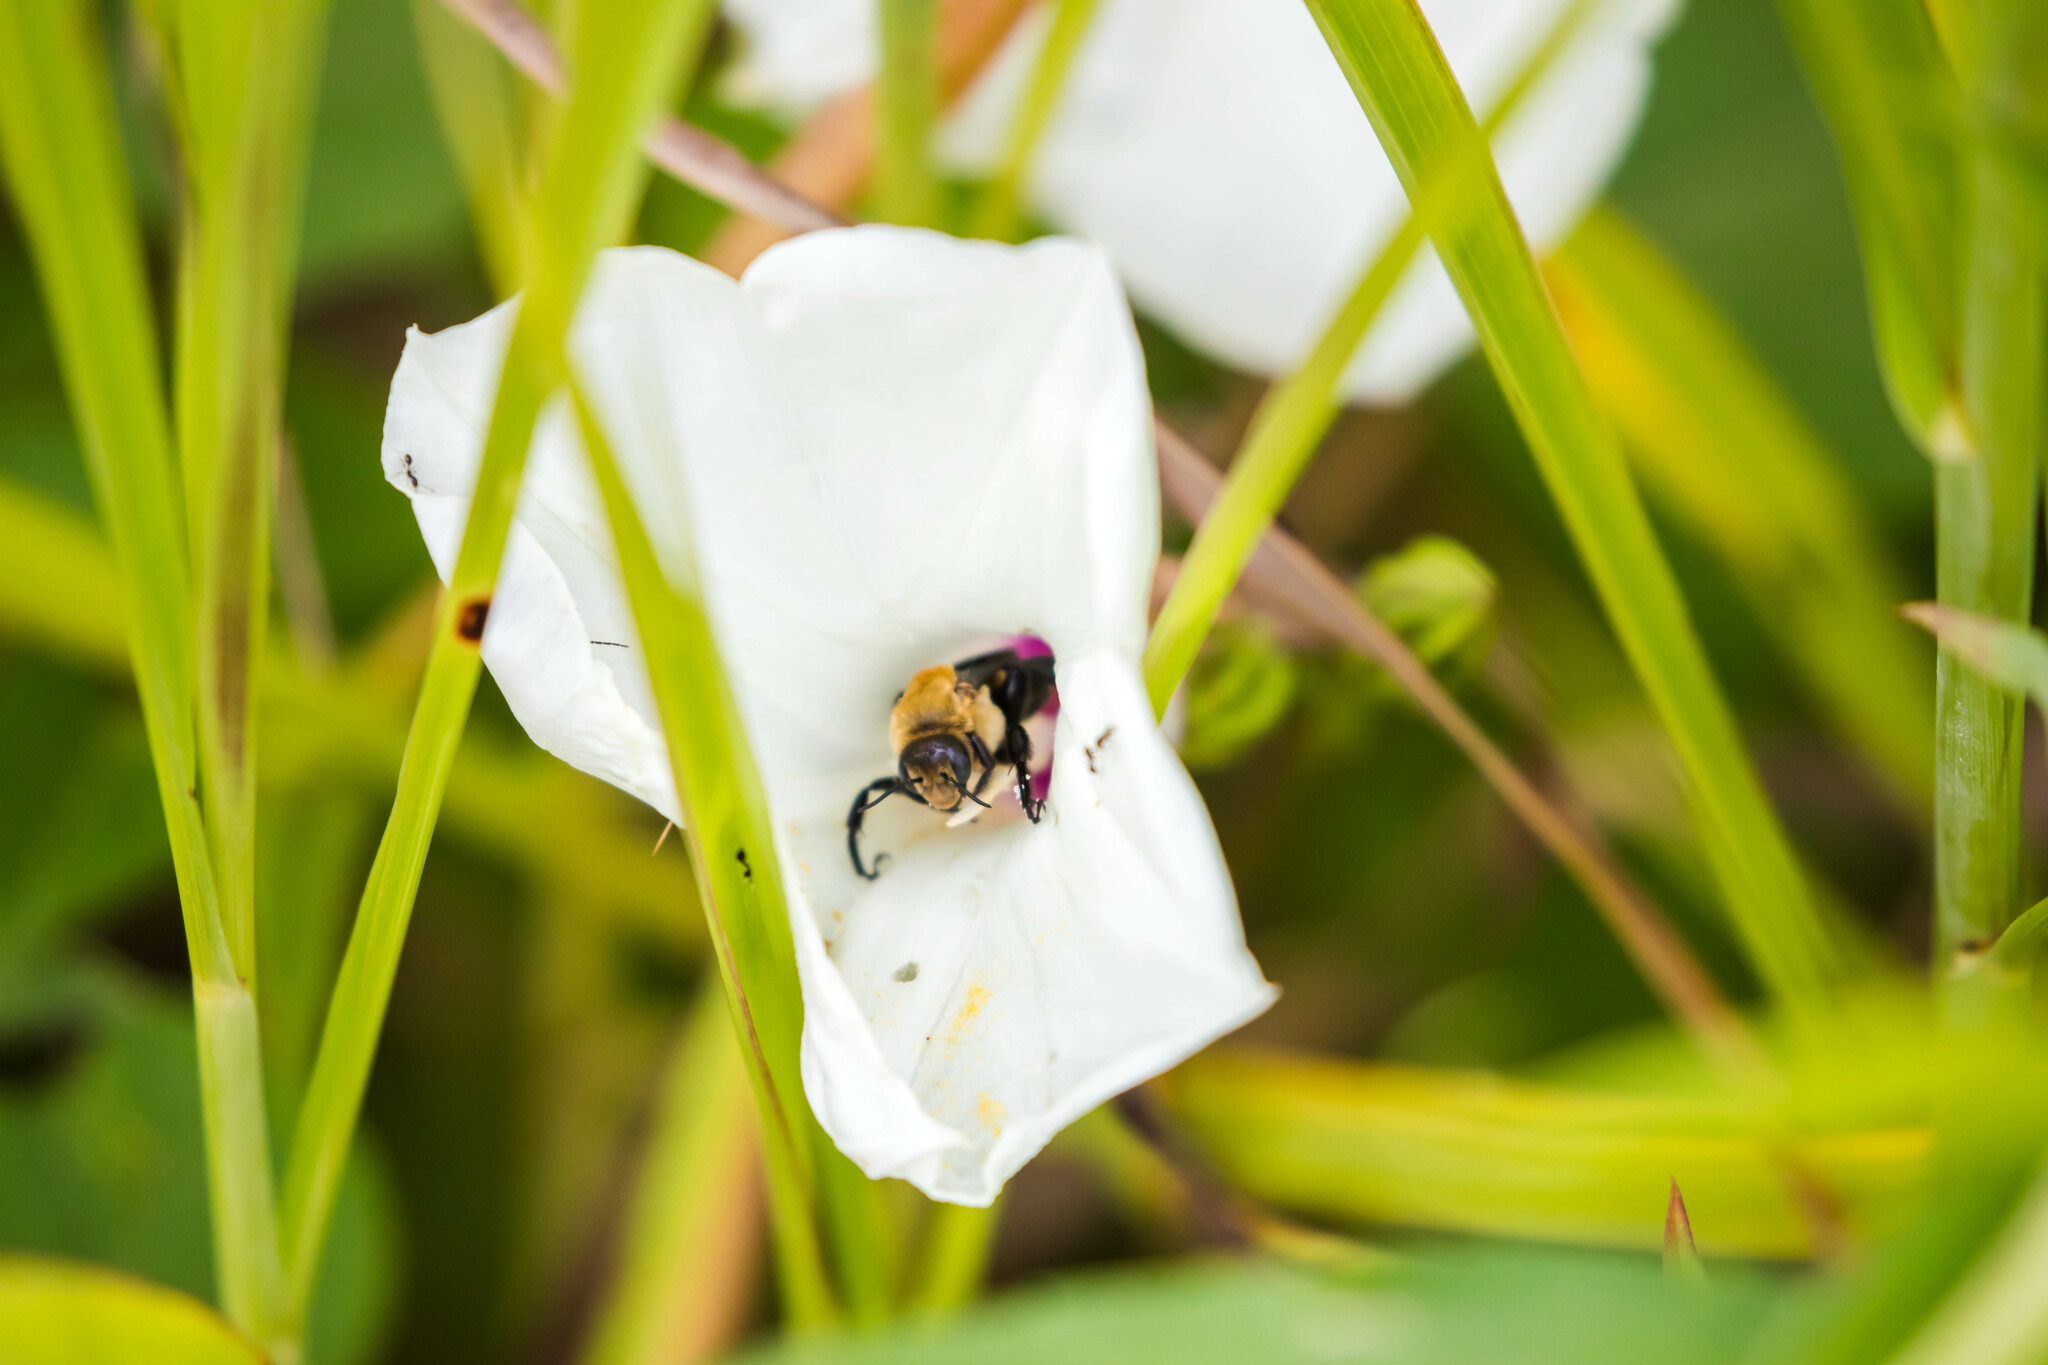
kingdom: Animalia
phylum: Arthropoda
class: Insecta
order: Hymenoptera
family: Apidae
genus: Ptilothrix
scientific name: Ptilothrix bombiformis
